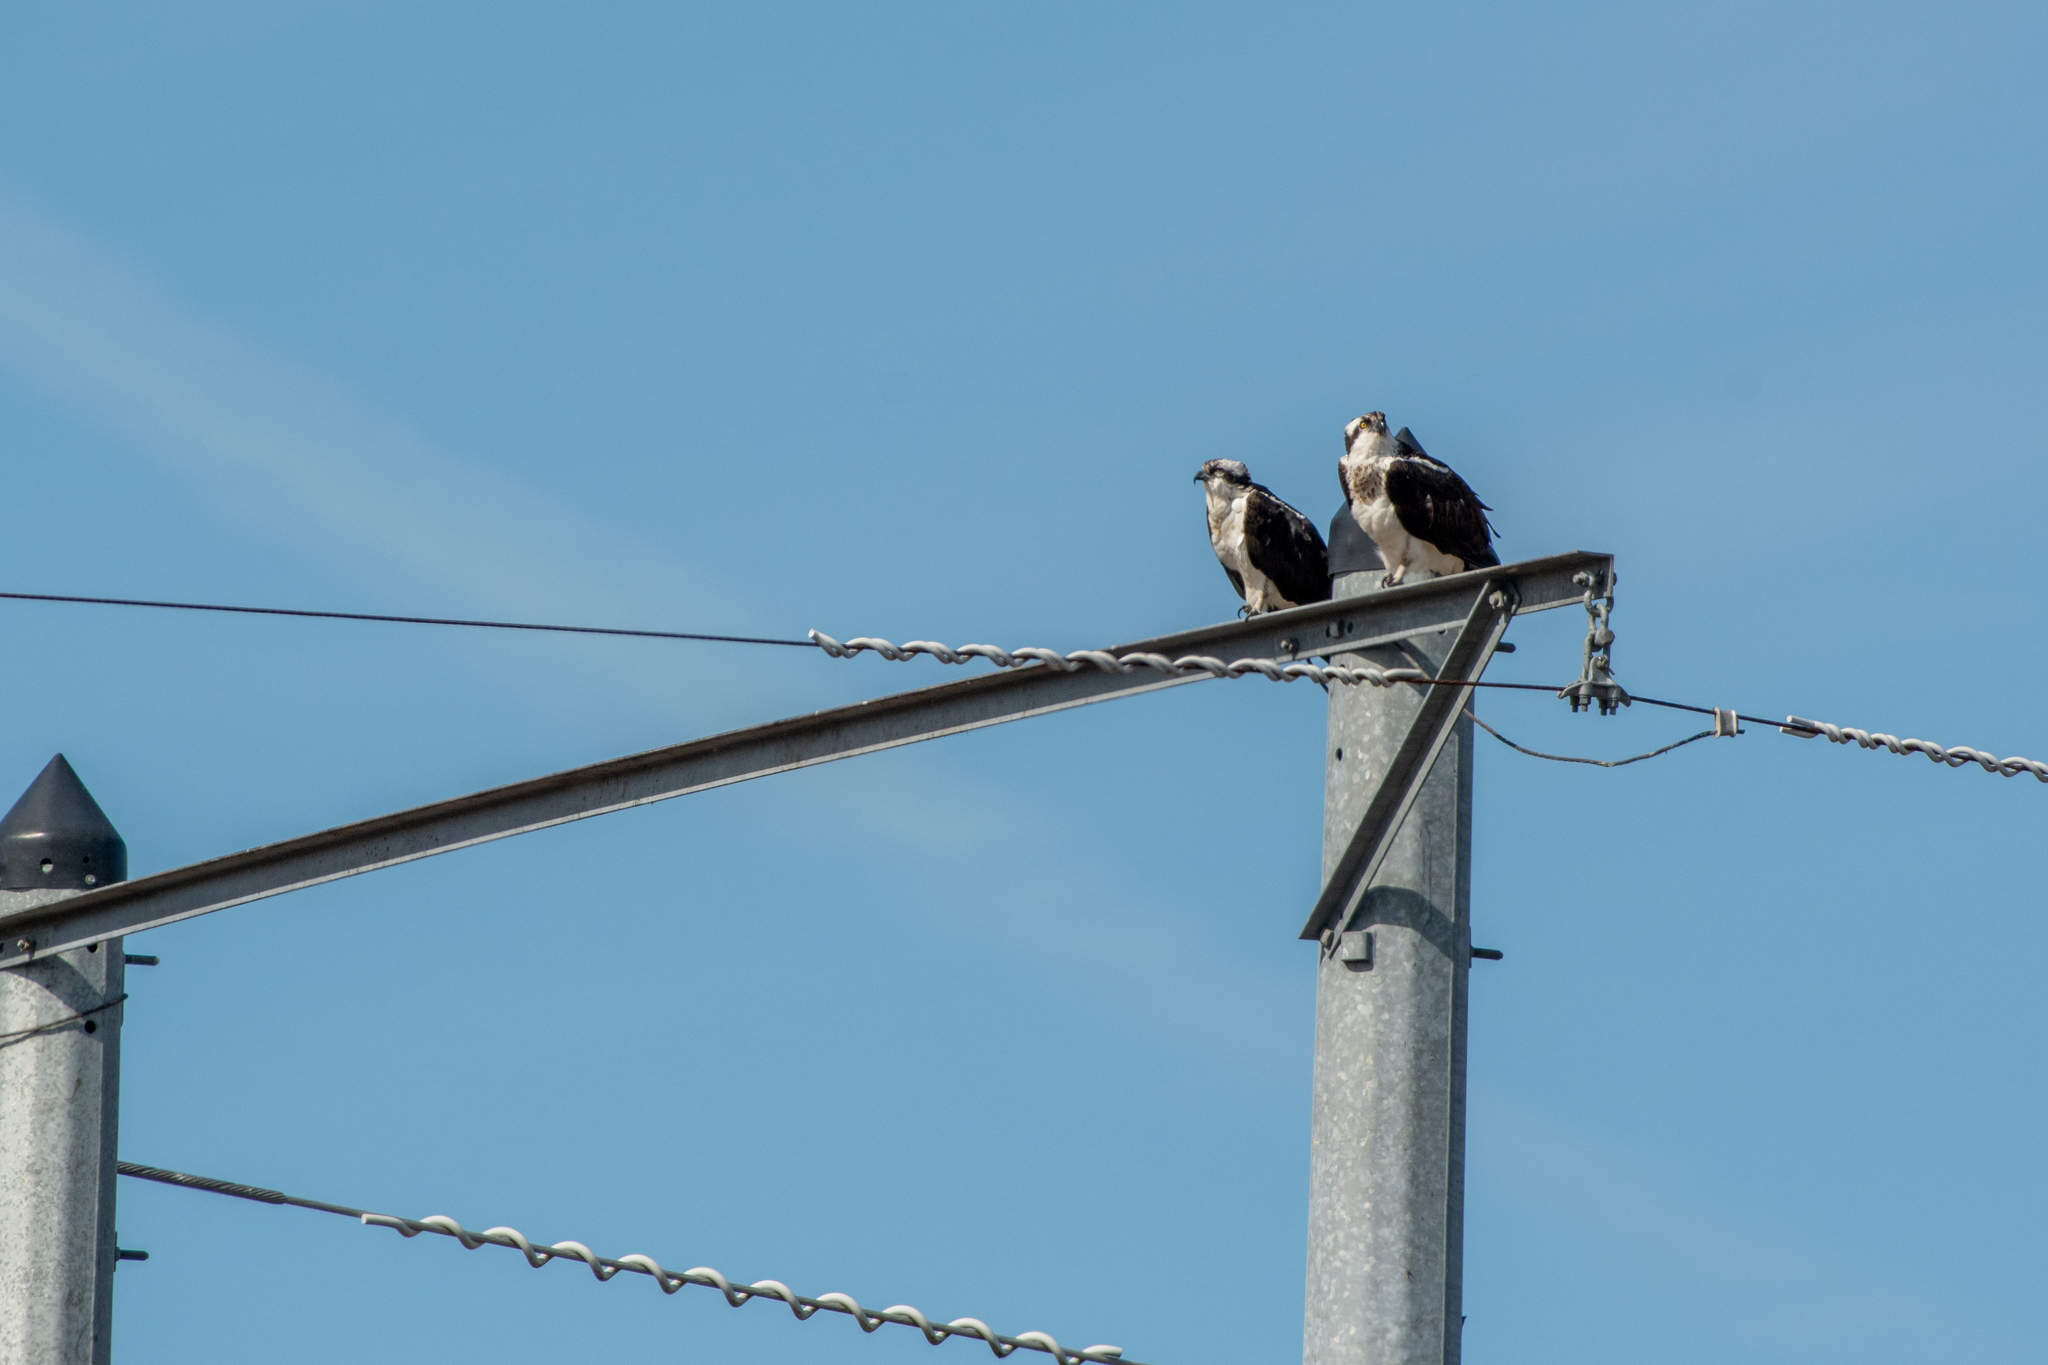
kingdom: Animalia
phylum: Chordata
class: Aves
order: Accipitriformes
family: Pandionidae
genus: Pandion
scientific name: Pandion haliaetus
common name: Osprey
